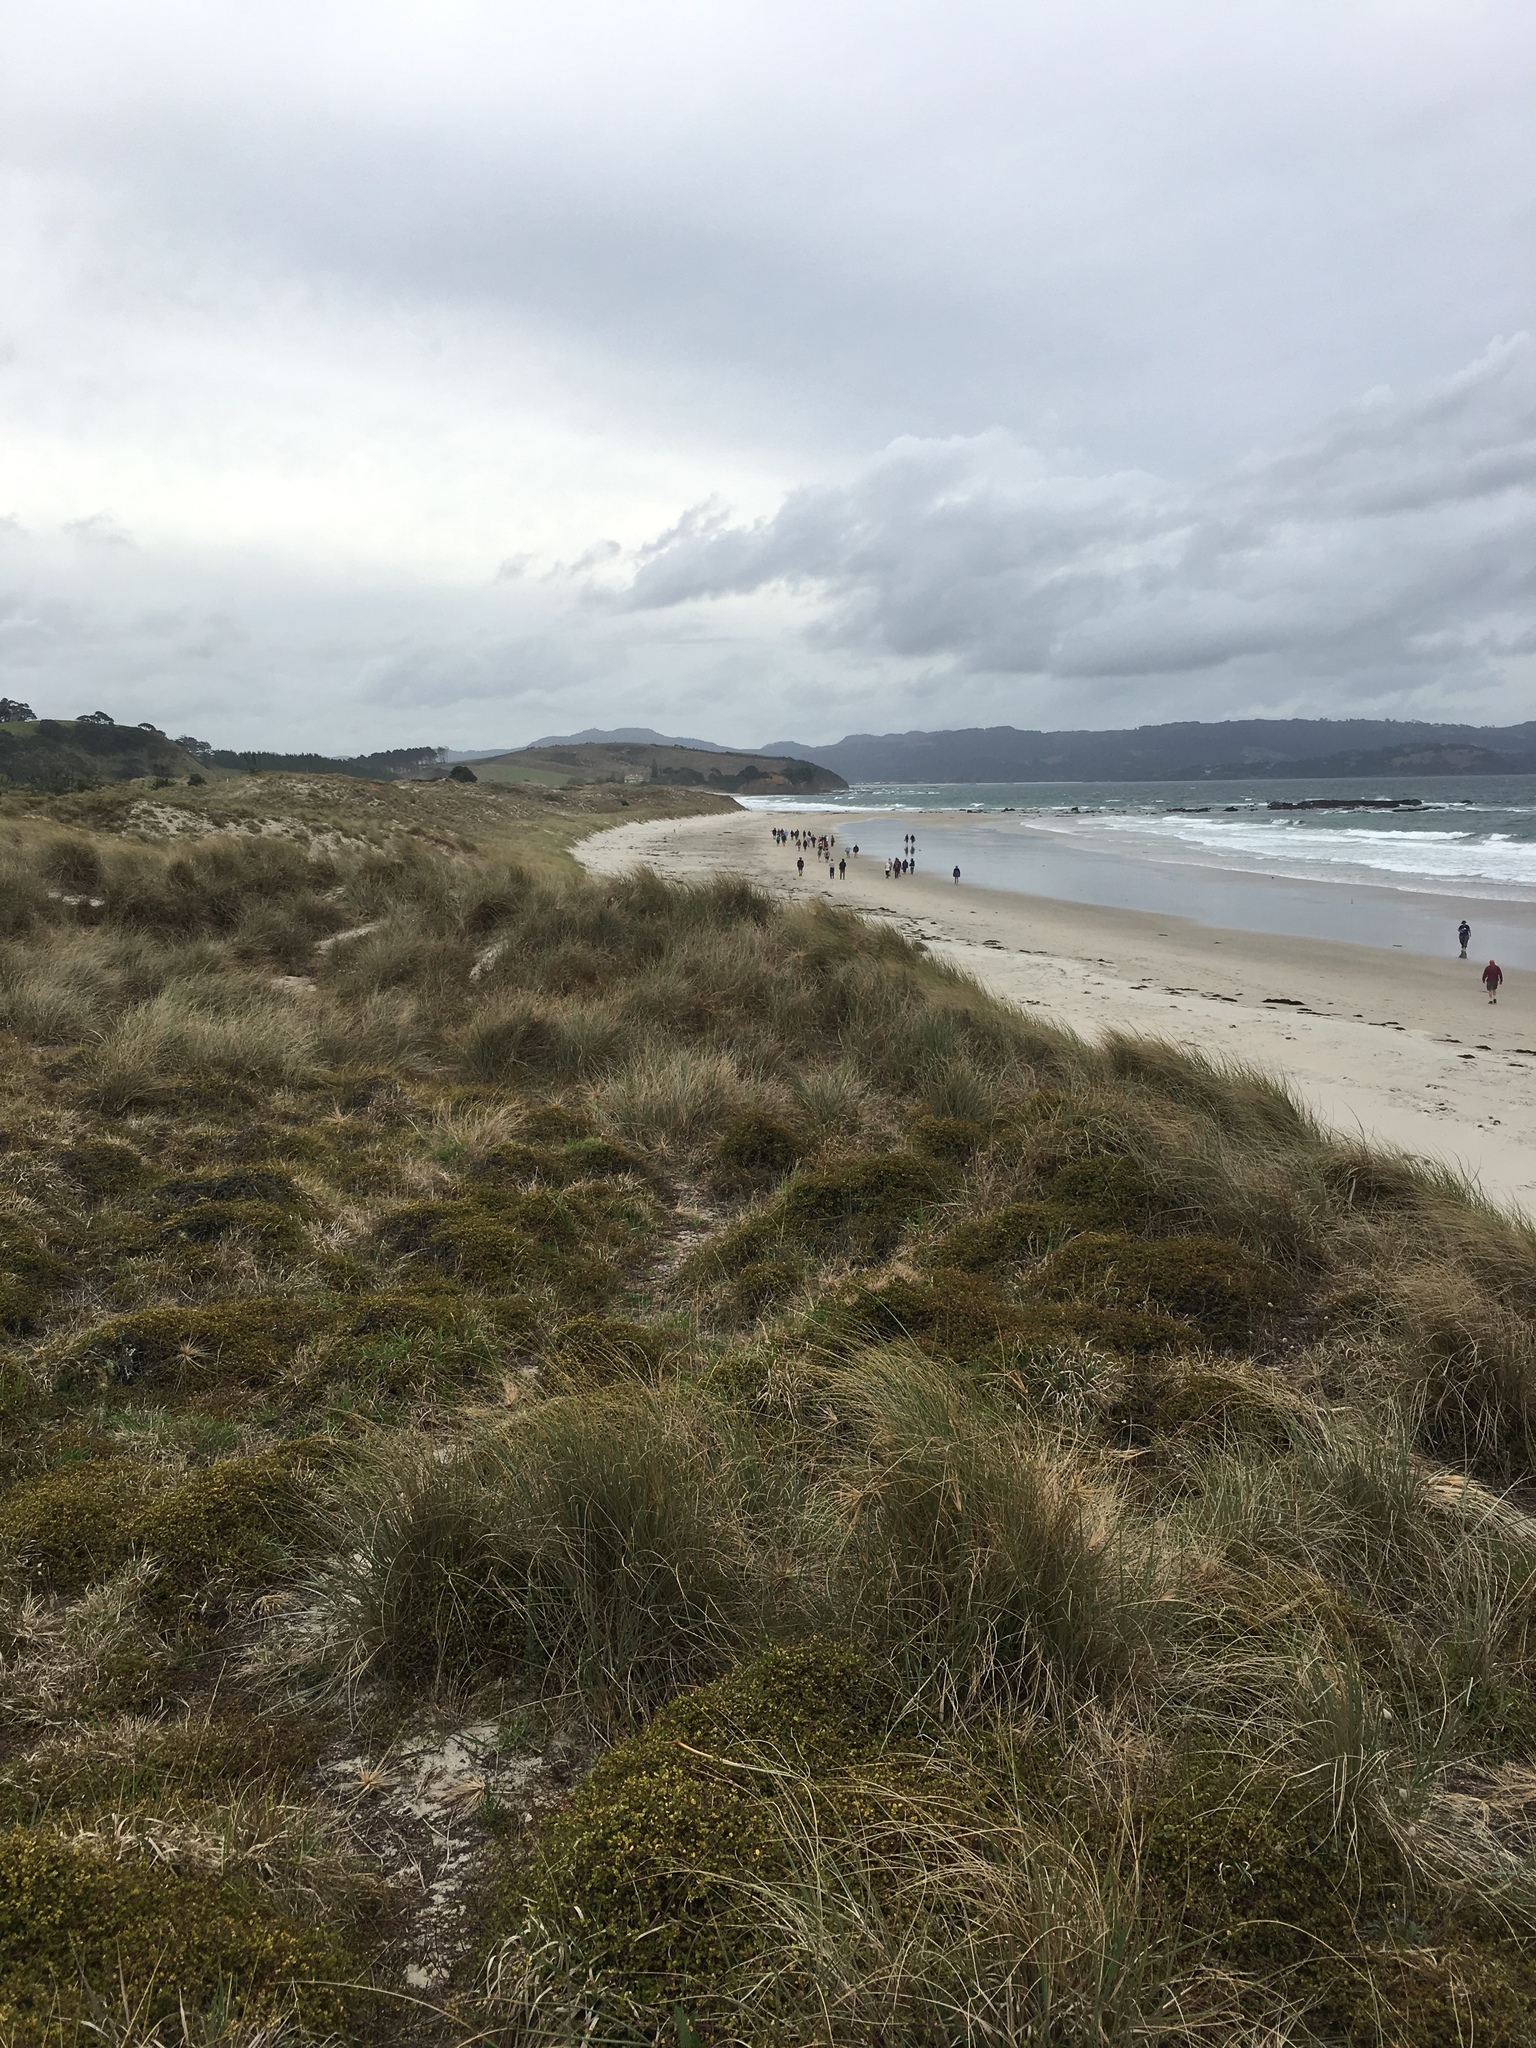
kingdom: Plantae
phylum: Tracheophyta
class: Liliopsida
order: Poales
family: Poaceae
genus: Spinifex
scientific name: Spinifex sericeus
